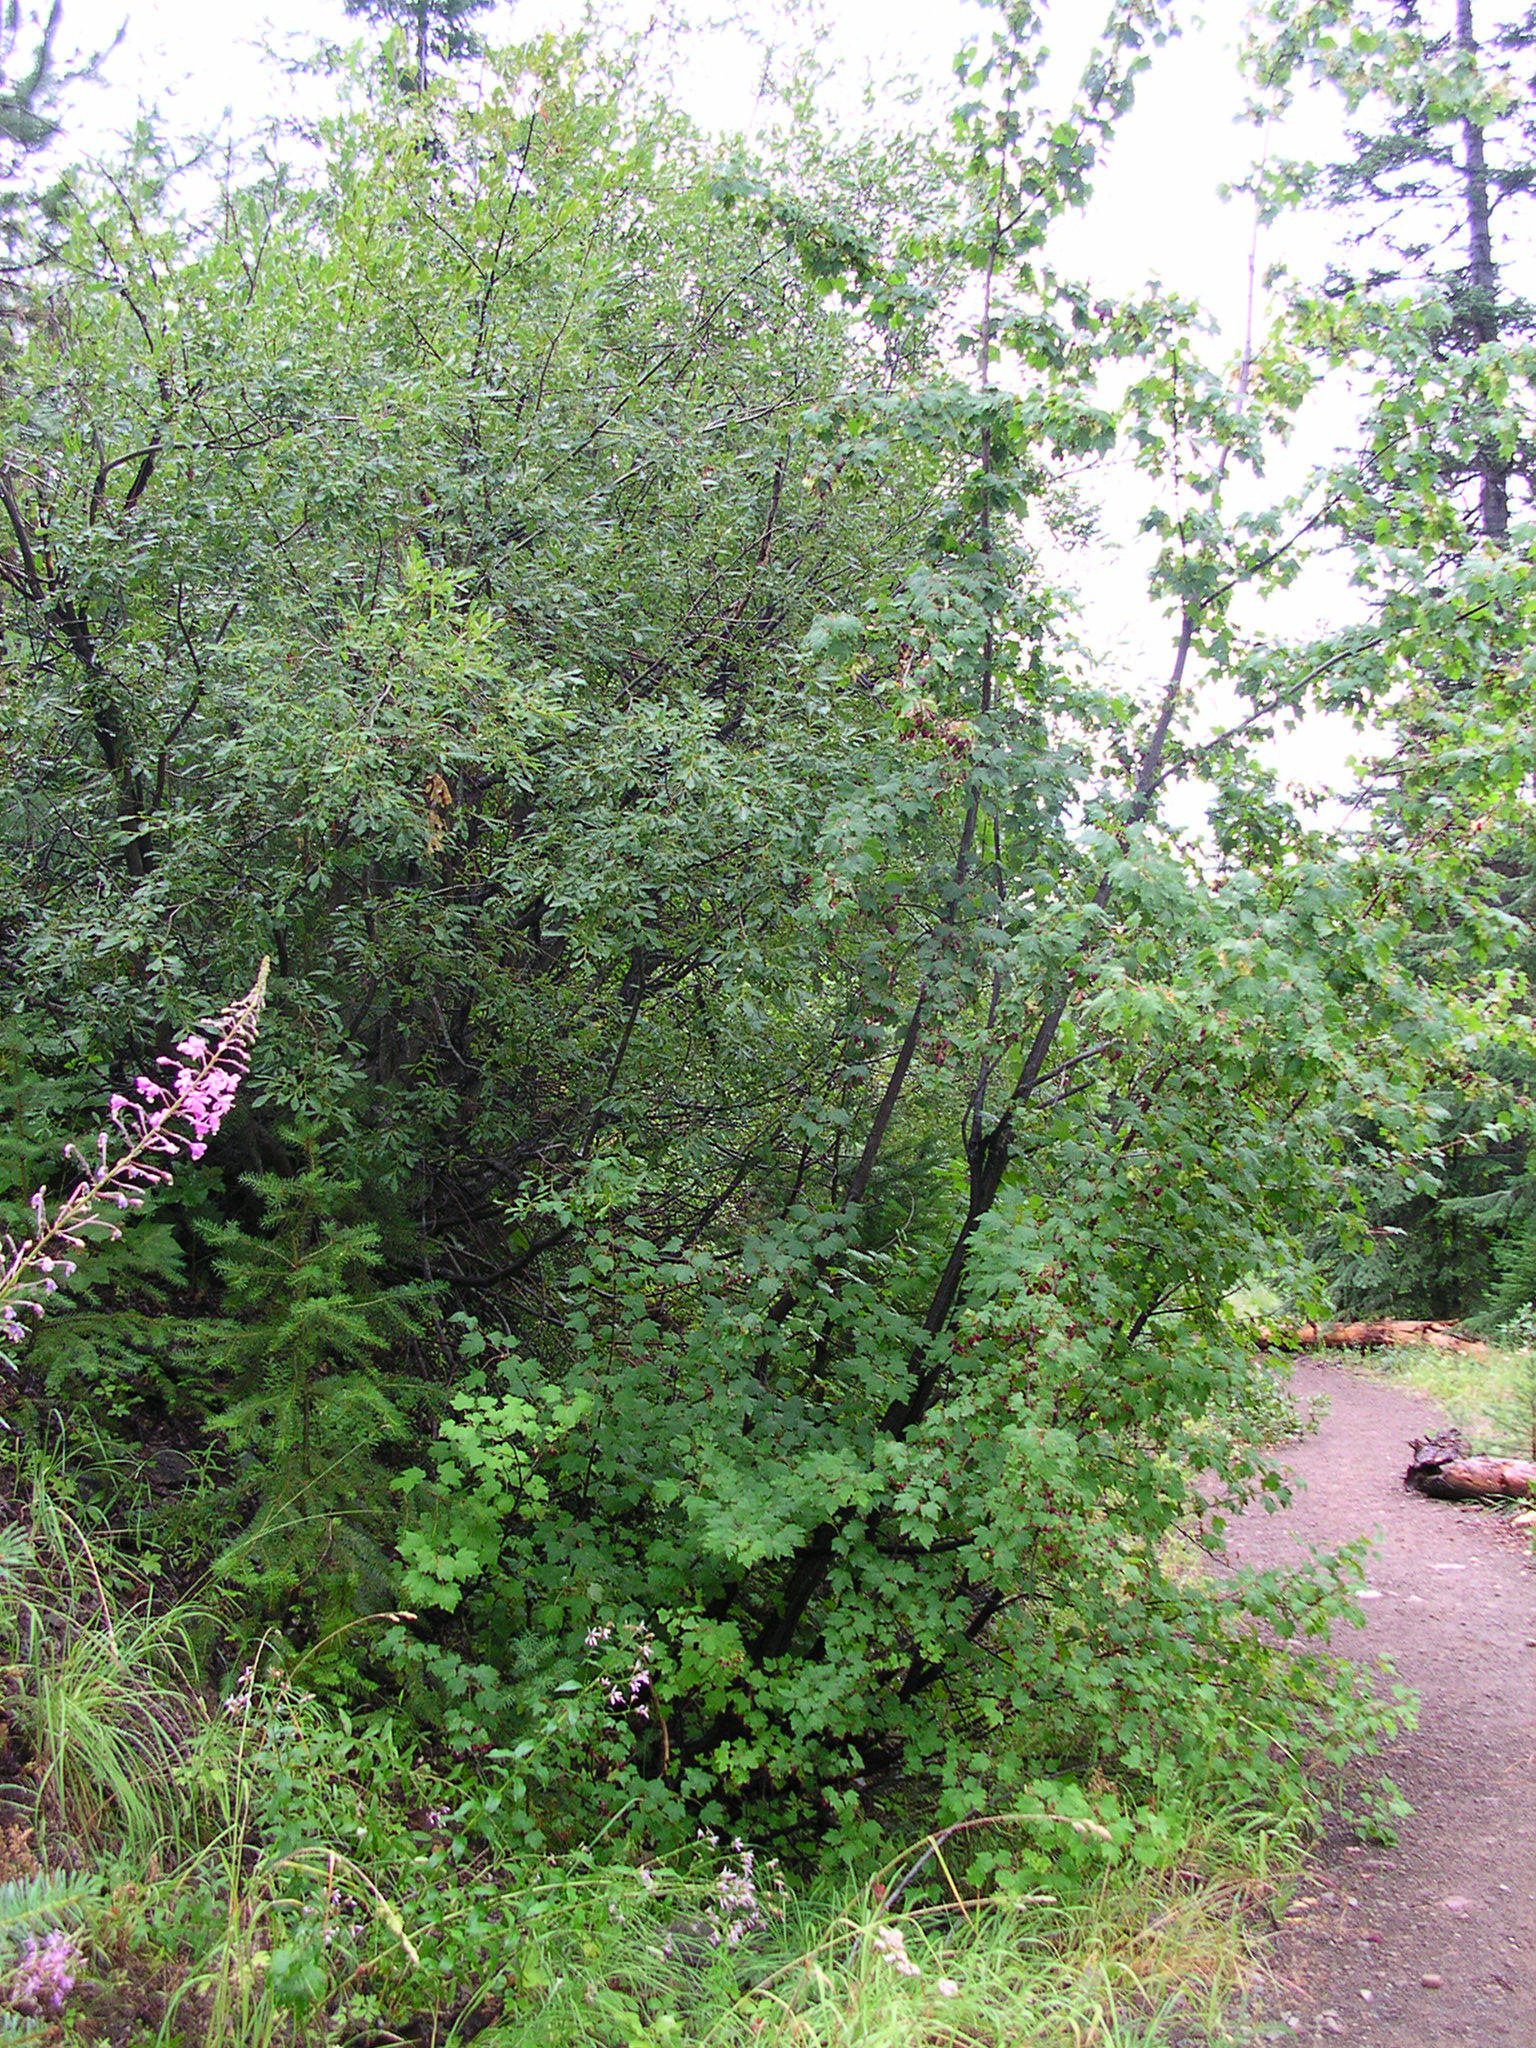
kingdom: Plantae
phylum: Tracheophyta
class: Magnoliopsida
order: Sapindales
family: Sapindaceae
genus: Acer
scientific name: Acer glabrum
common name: Rocky mountain maple
